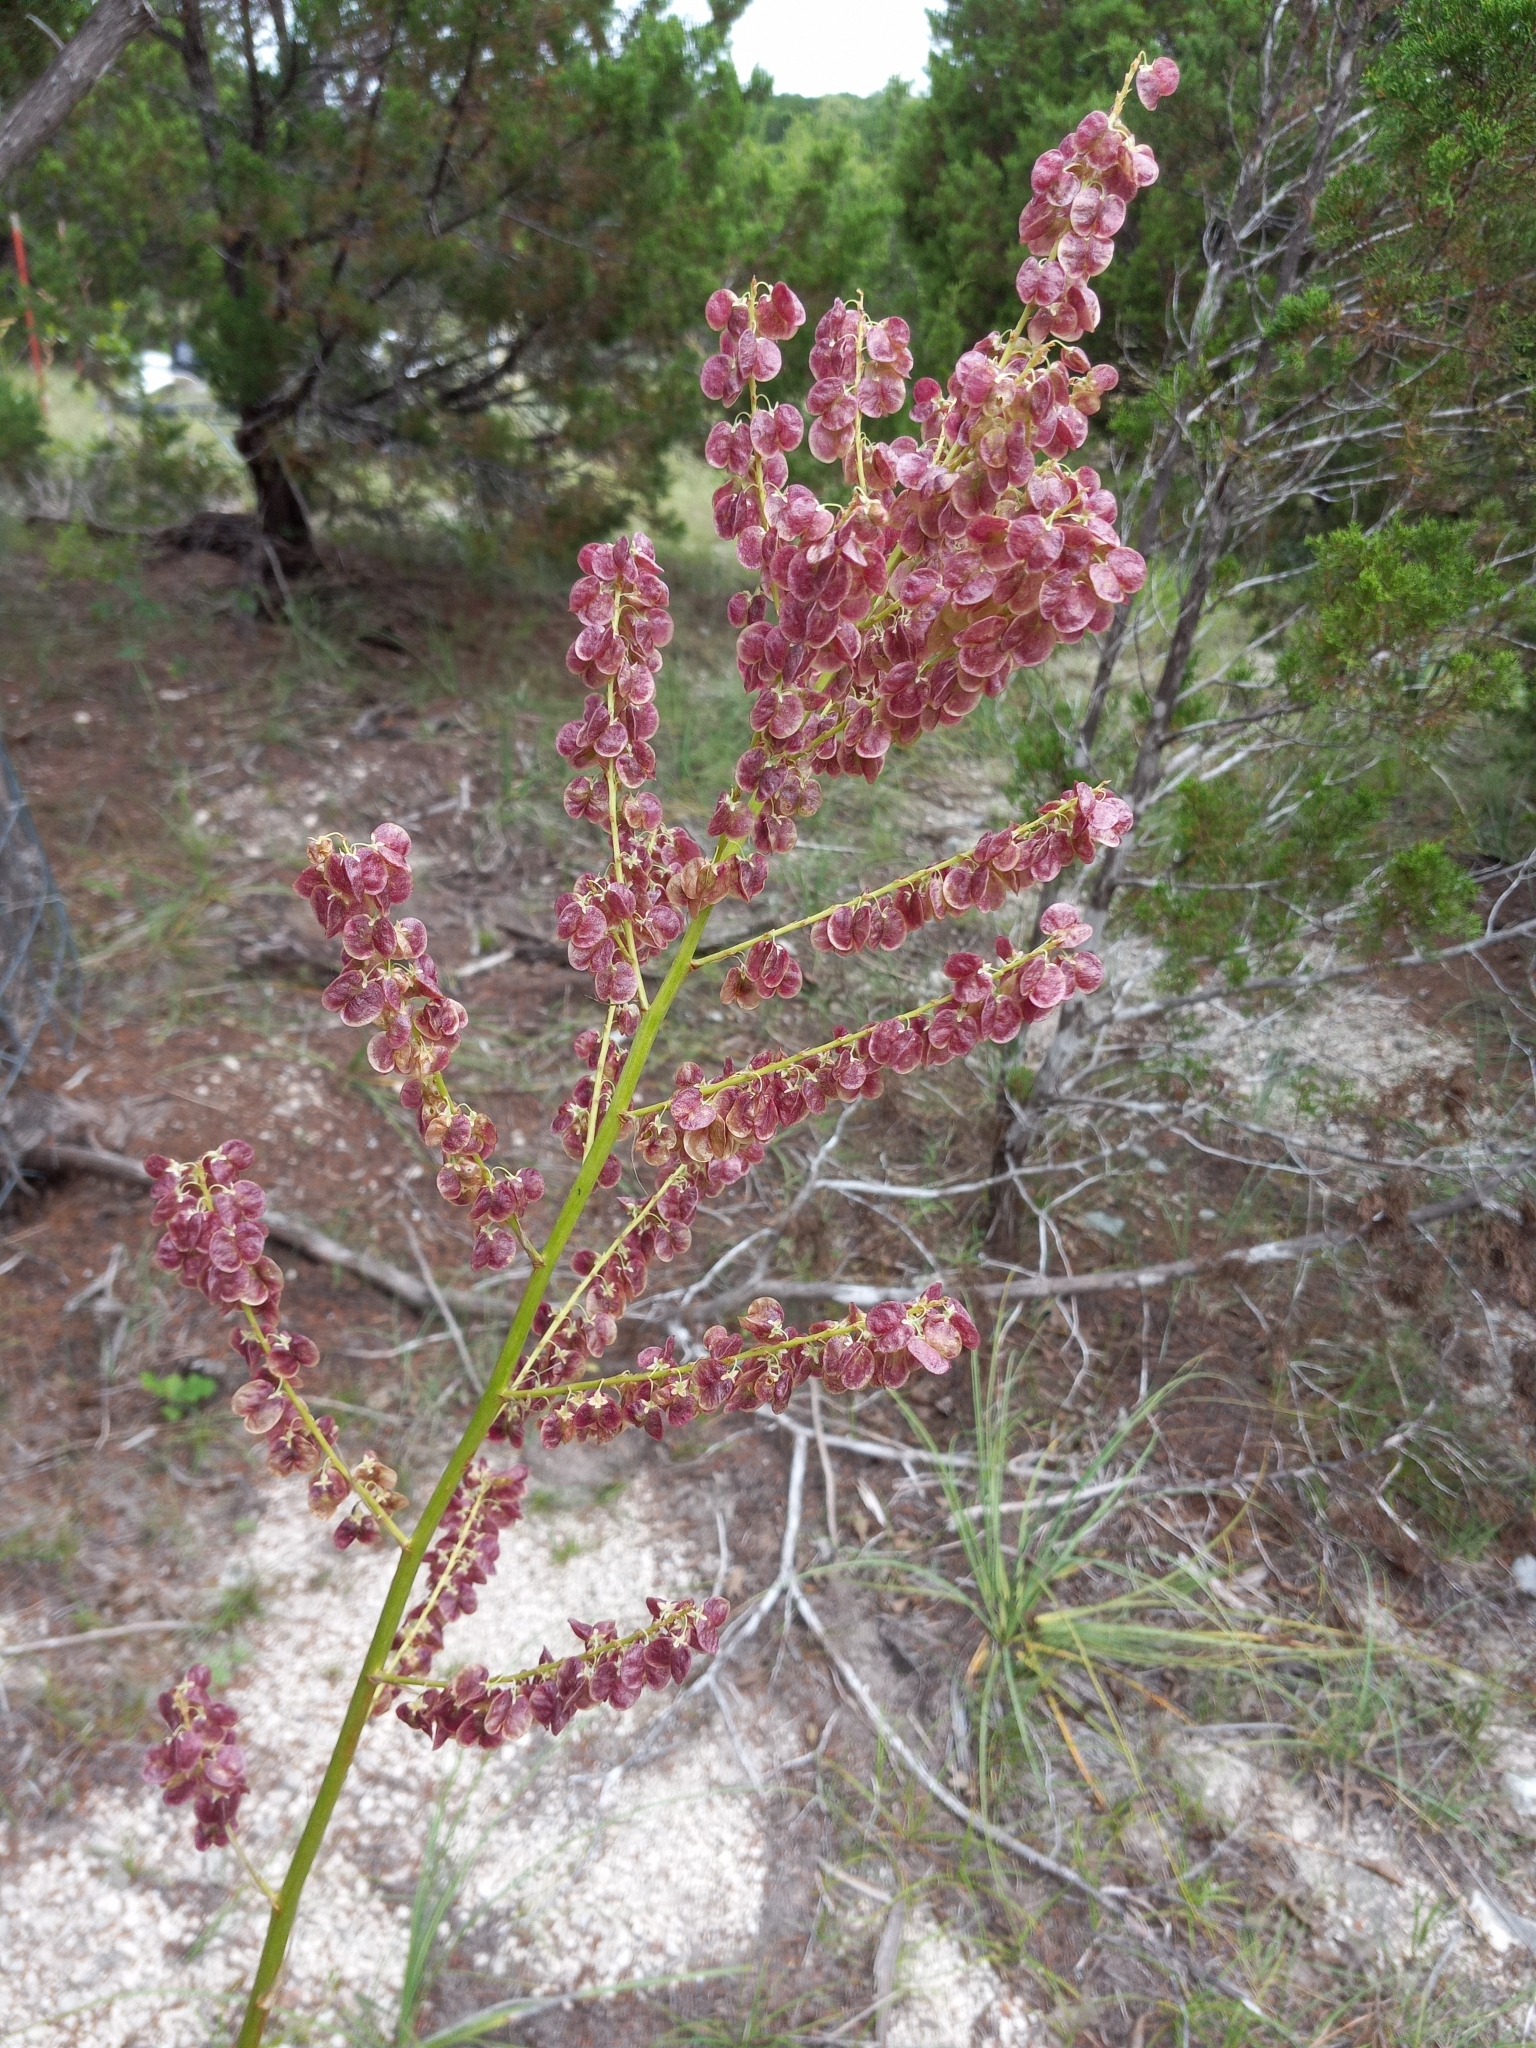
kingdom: Plantae
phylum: Tracheophyta
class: Liliopsida
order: Asparagales
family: Asparagaceae
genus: Nolina
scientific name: Nolina lindheimeriana
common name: Lindheimer's bear-grass
